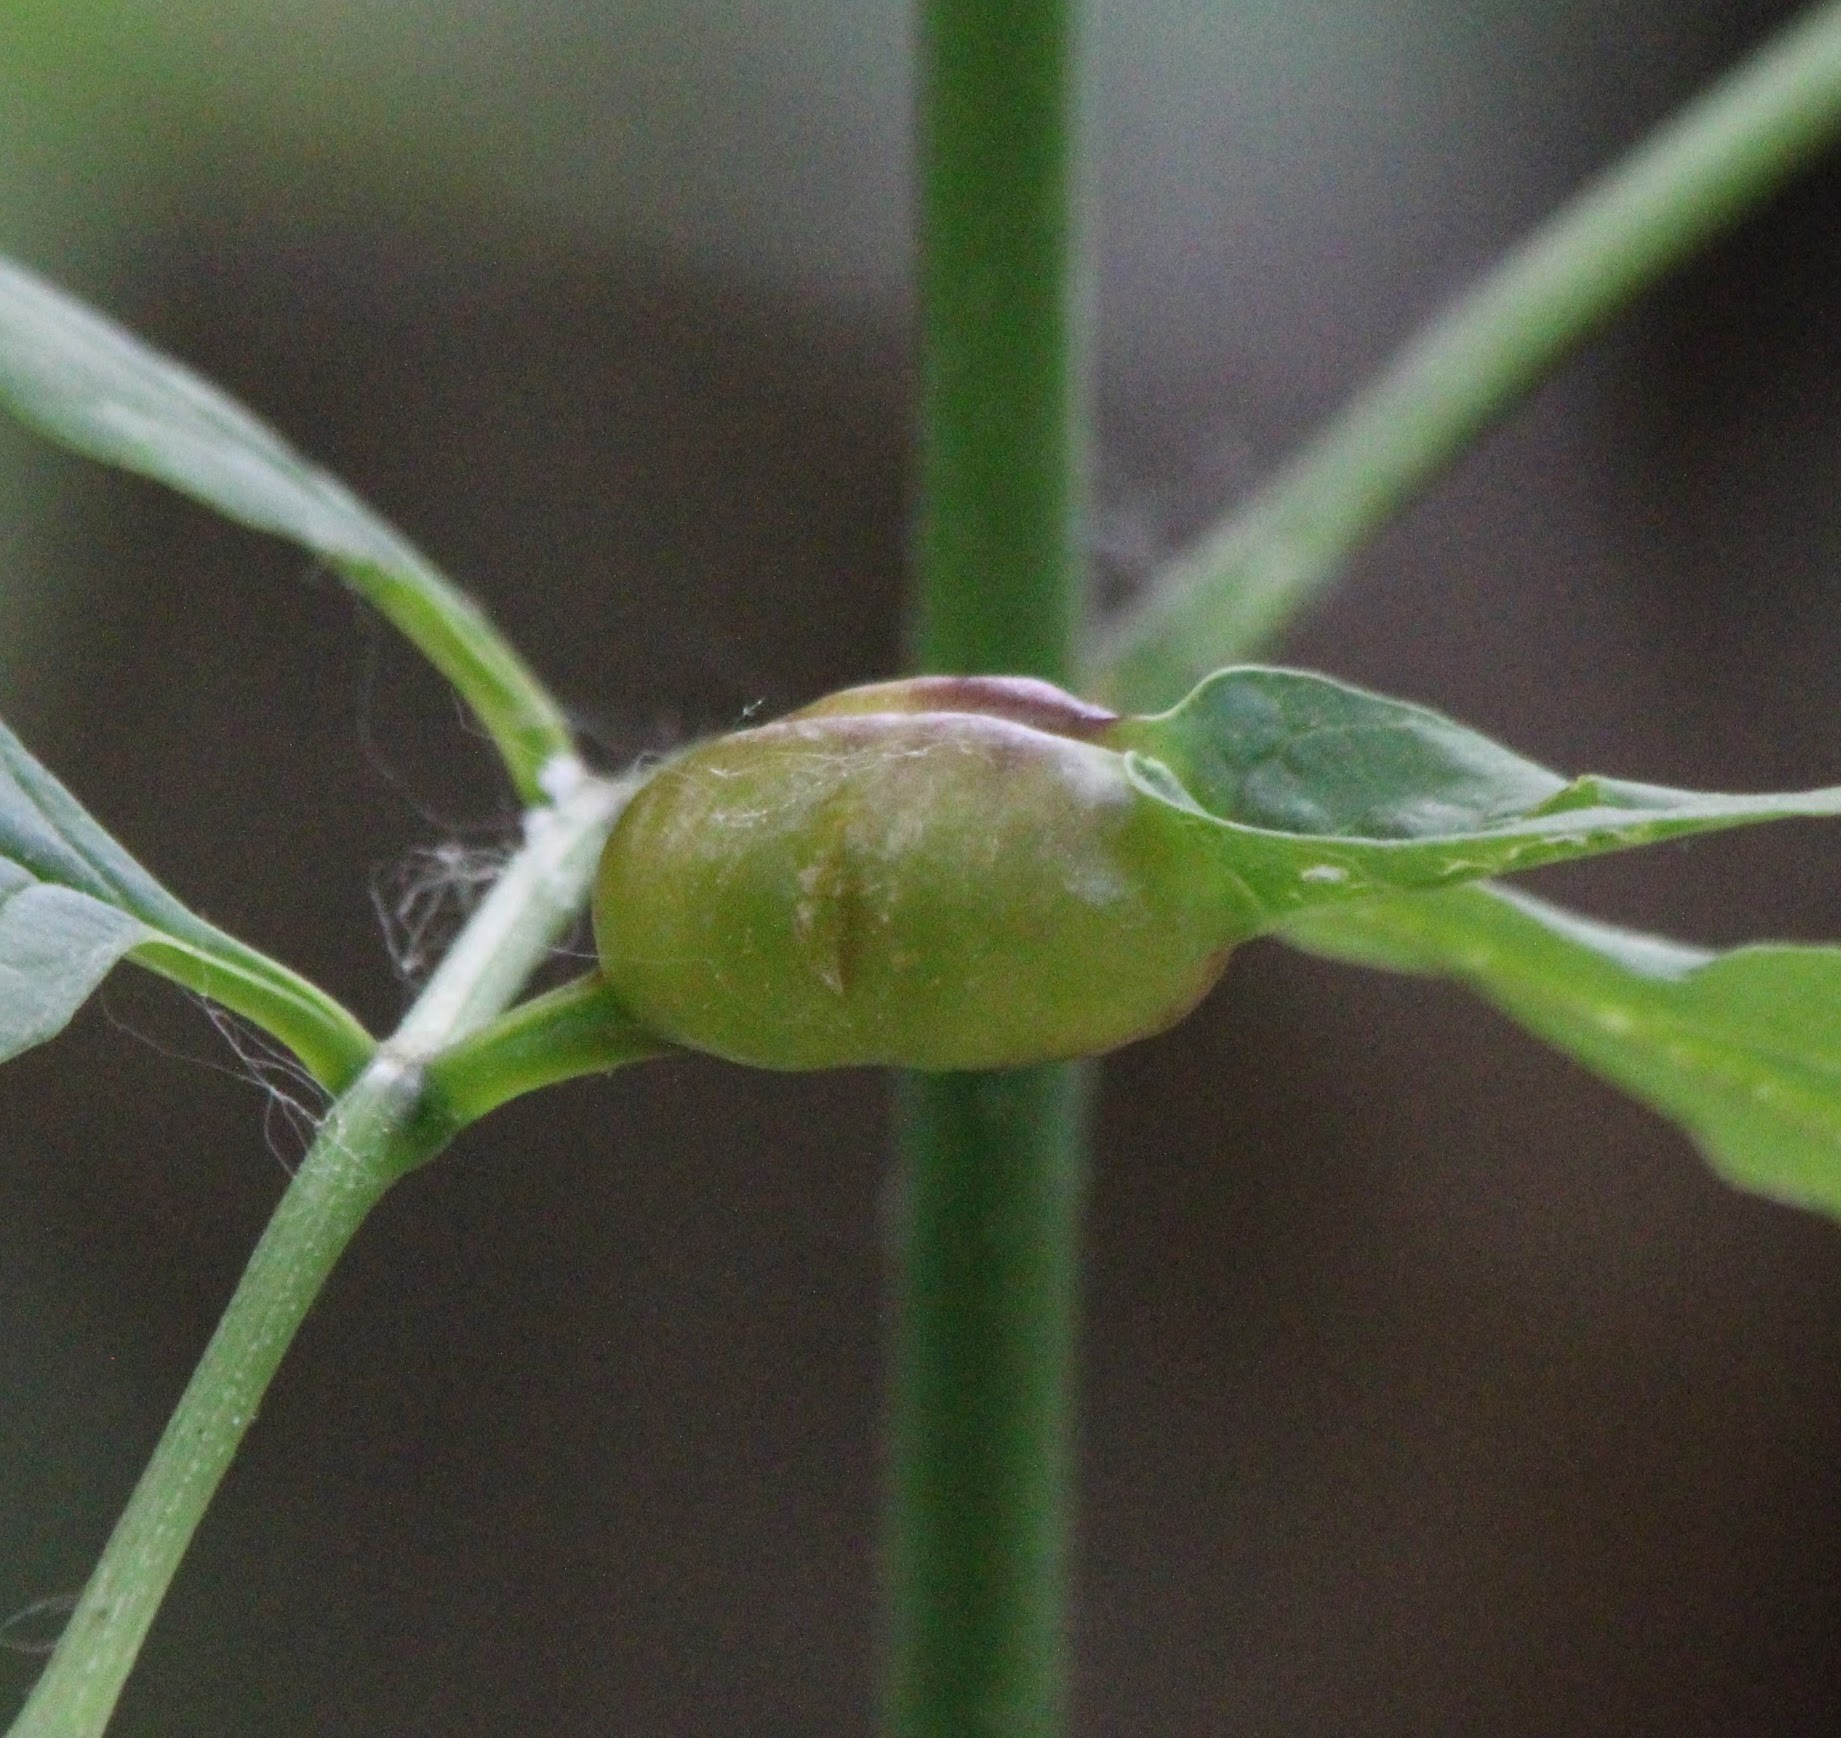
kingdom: Animalia
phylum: Arthropoda
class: Insecta
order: Diptera
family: Cecidomyiidae
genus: Dasineura
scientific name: Dasineura tumidosae
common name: Ash petiole gall midge
